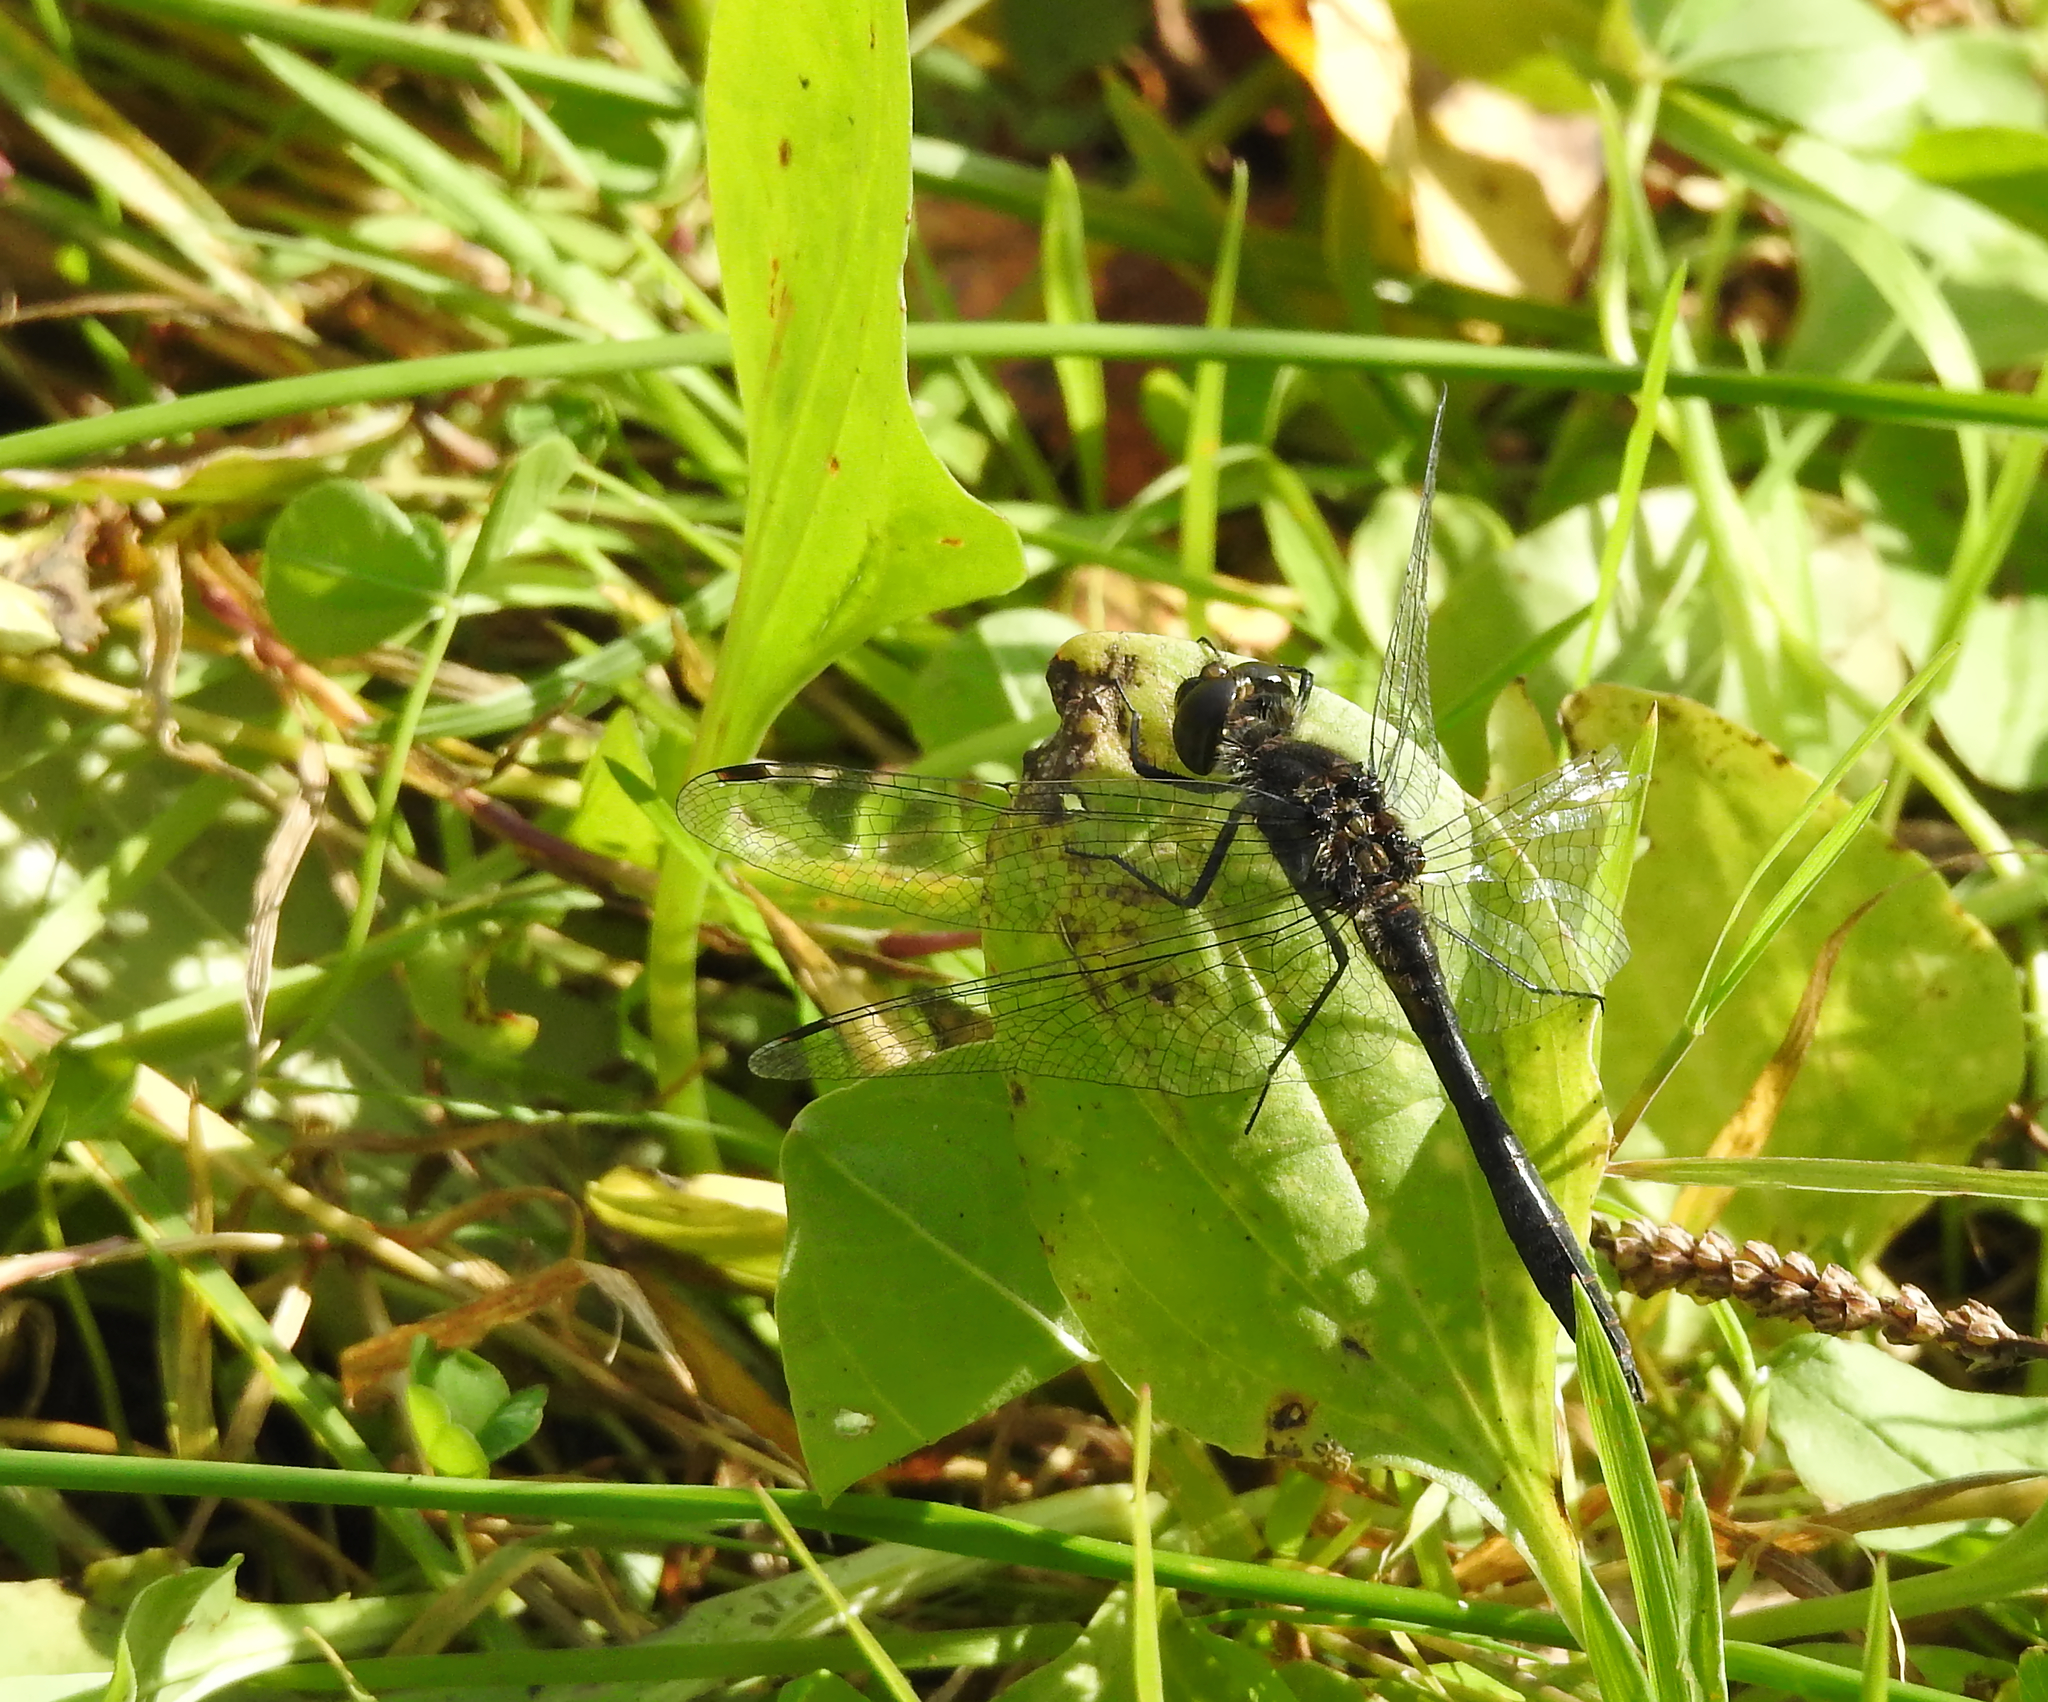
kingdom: Animalia
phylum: Arthropoda
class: Insecta
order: Odonata
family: Libellulidae
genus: Sympetrum
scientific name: Sympetrum danae
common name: Black darter
